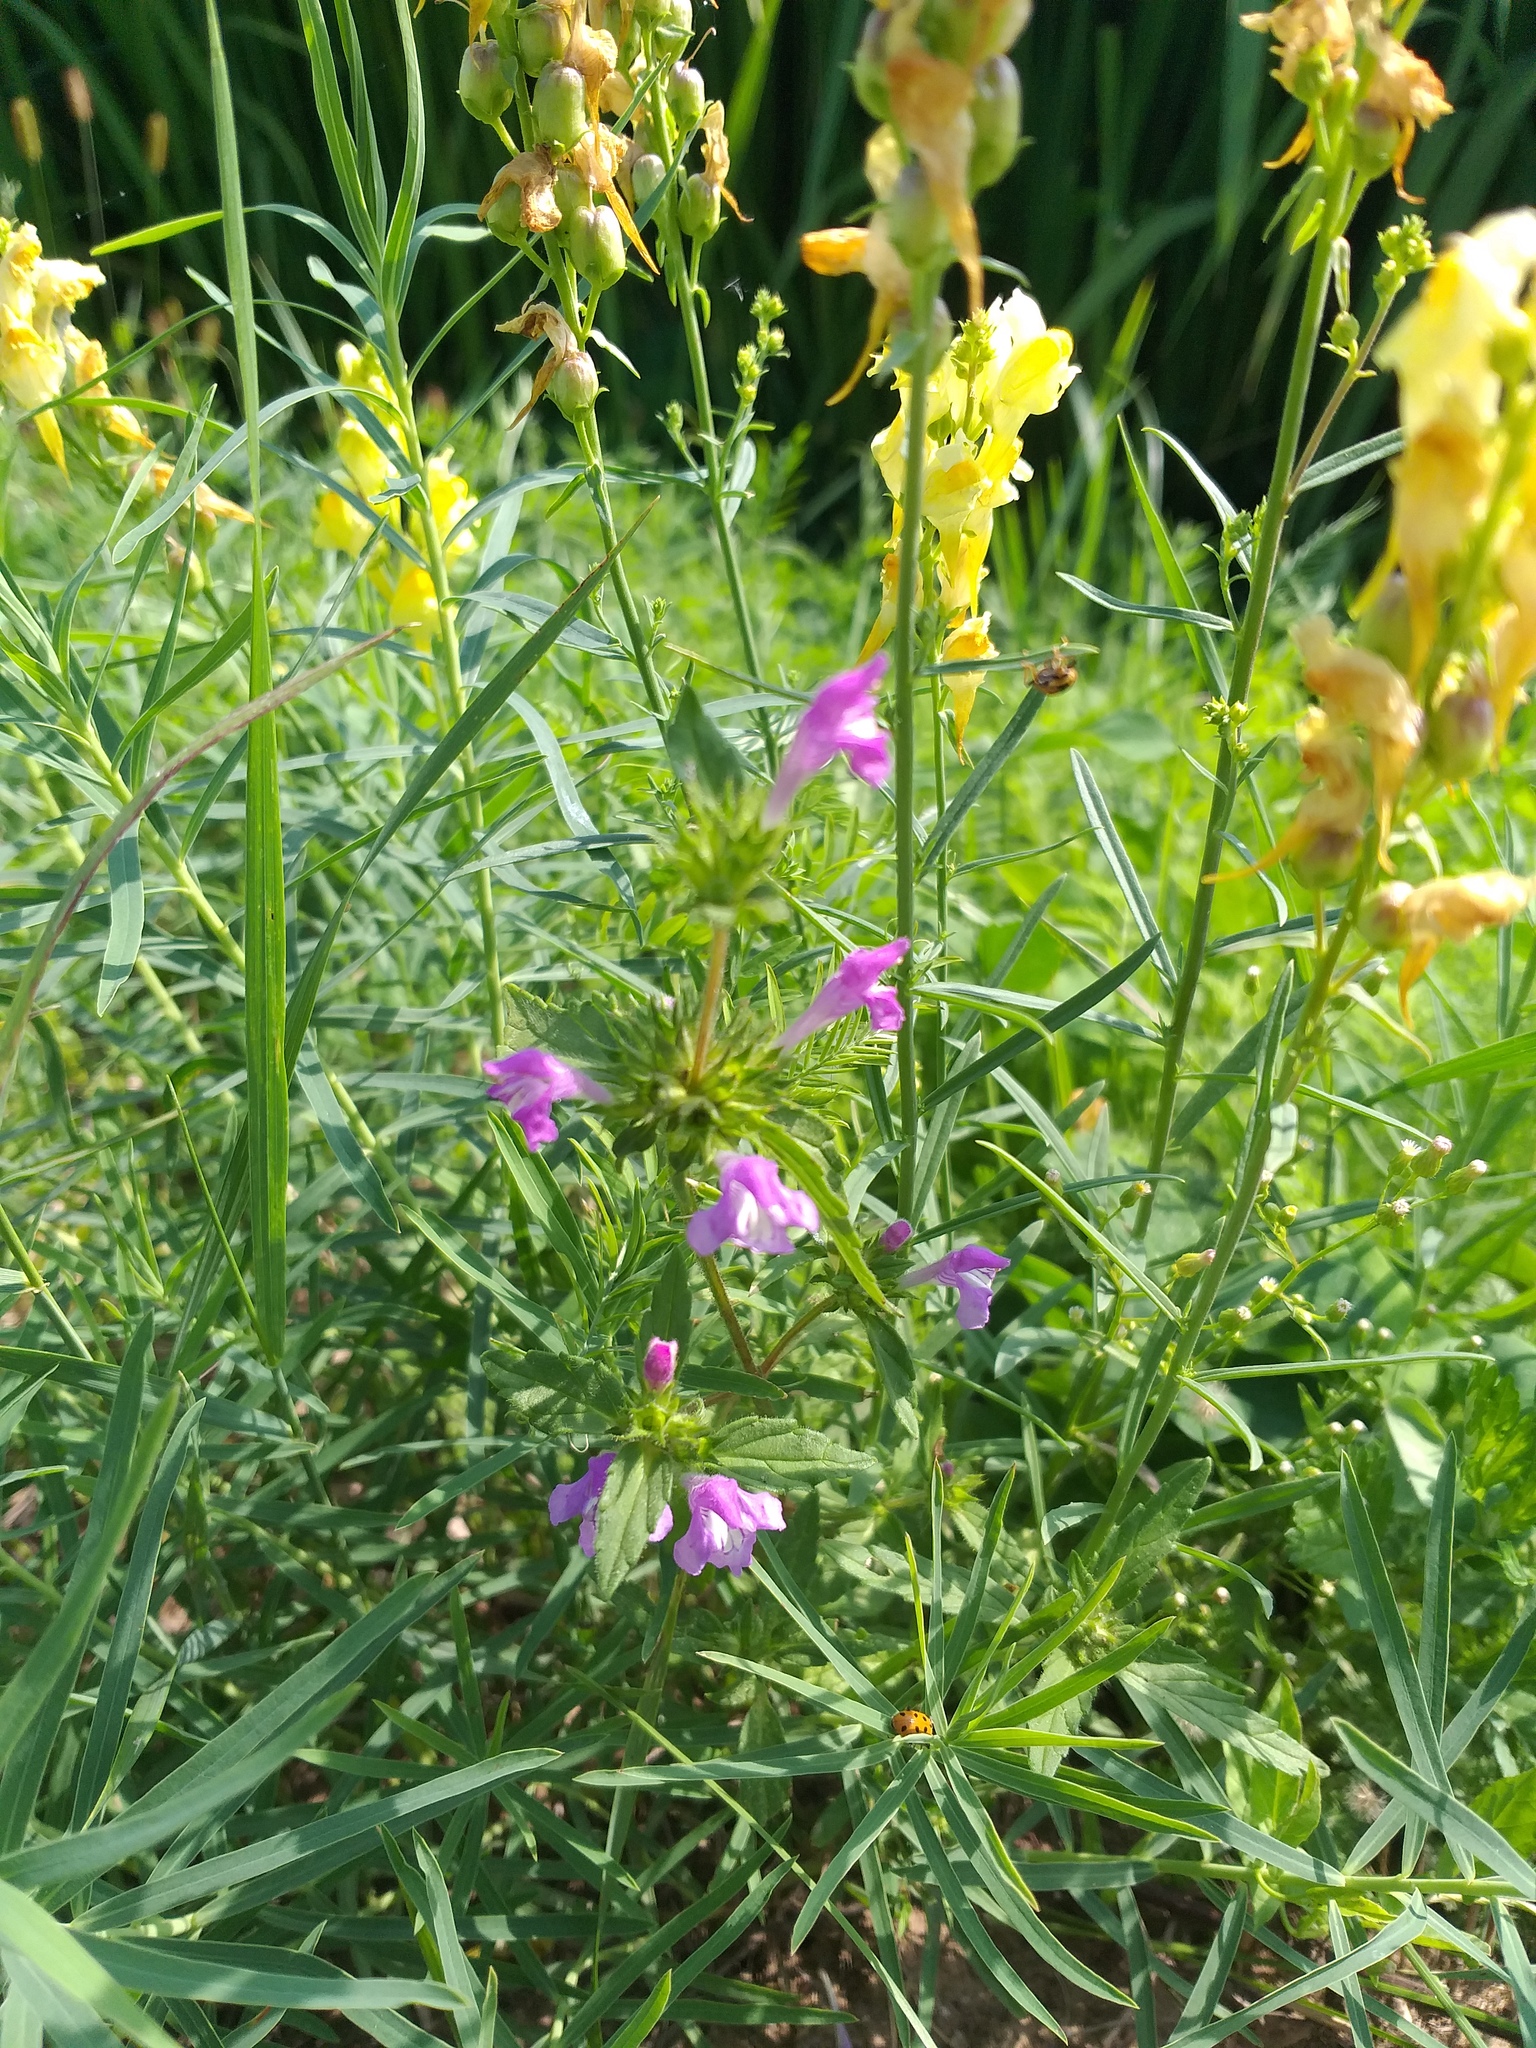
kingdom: Plantae
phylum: Tracheophyta
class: Magnoliopsida
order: Lamiales
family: Lamiaceae
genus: Galeopsis
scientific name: Galeopsis ladanum
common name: Broad-leaved hemp-nettle
